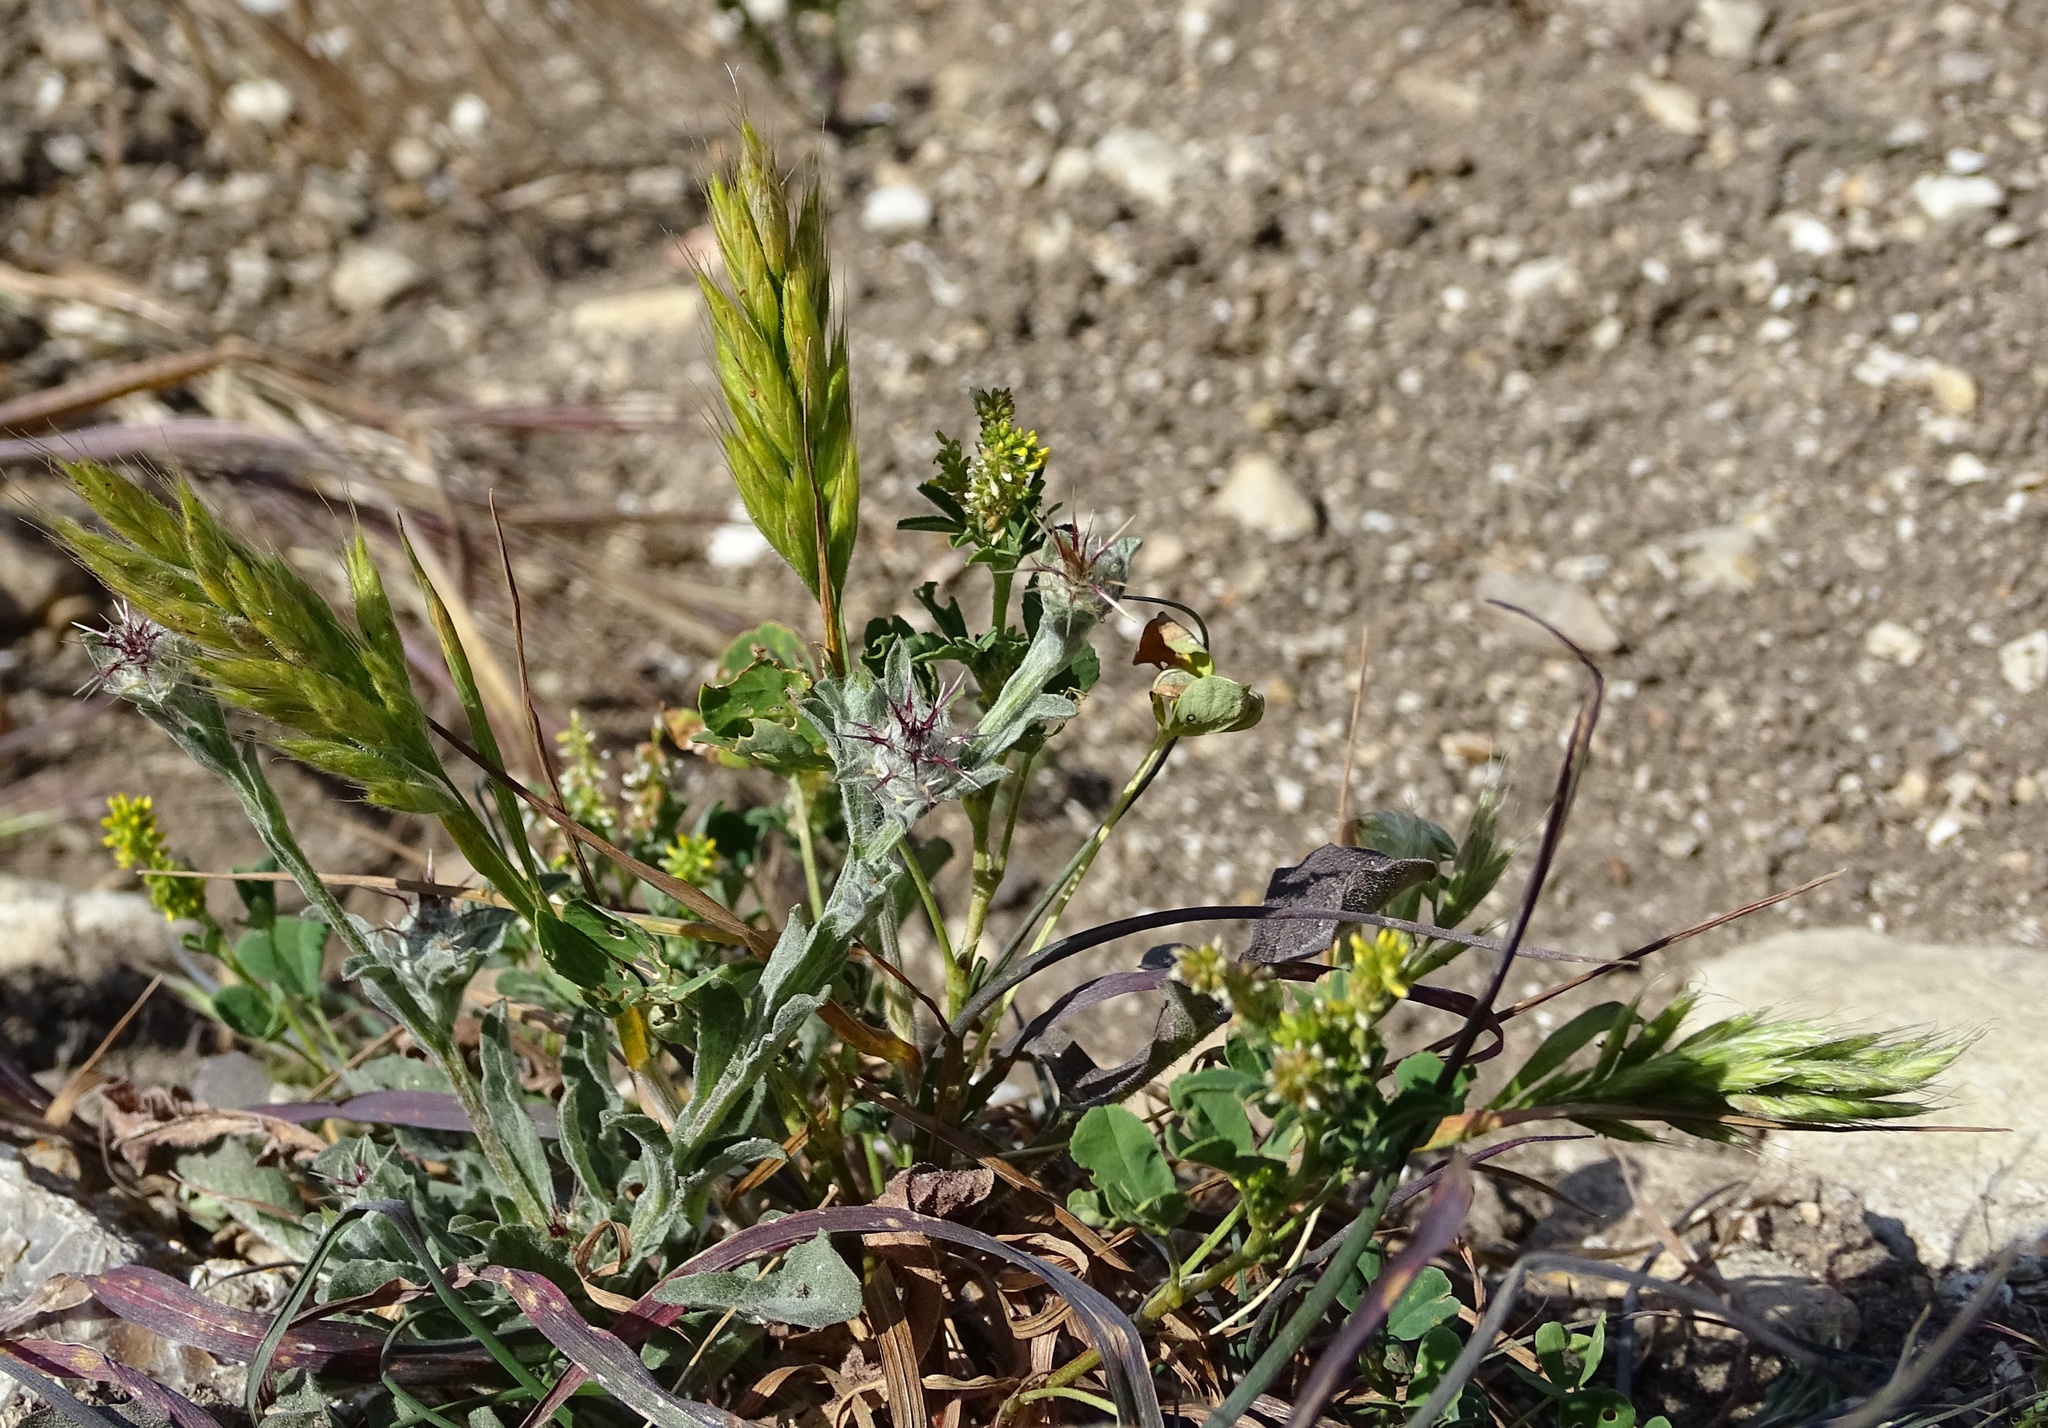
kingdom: Plantae
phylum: Tracheophyta
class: Liliopsida
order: Poales
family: Poaceae
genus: Bromus
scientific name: Bromus hordeaceus
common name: Soft brome
